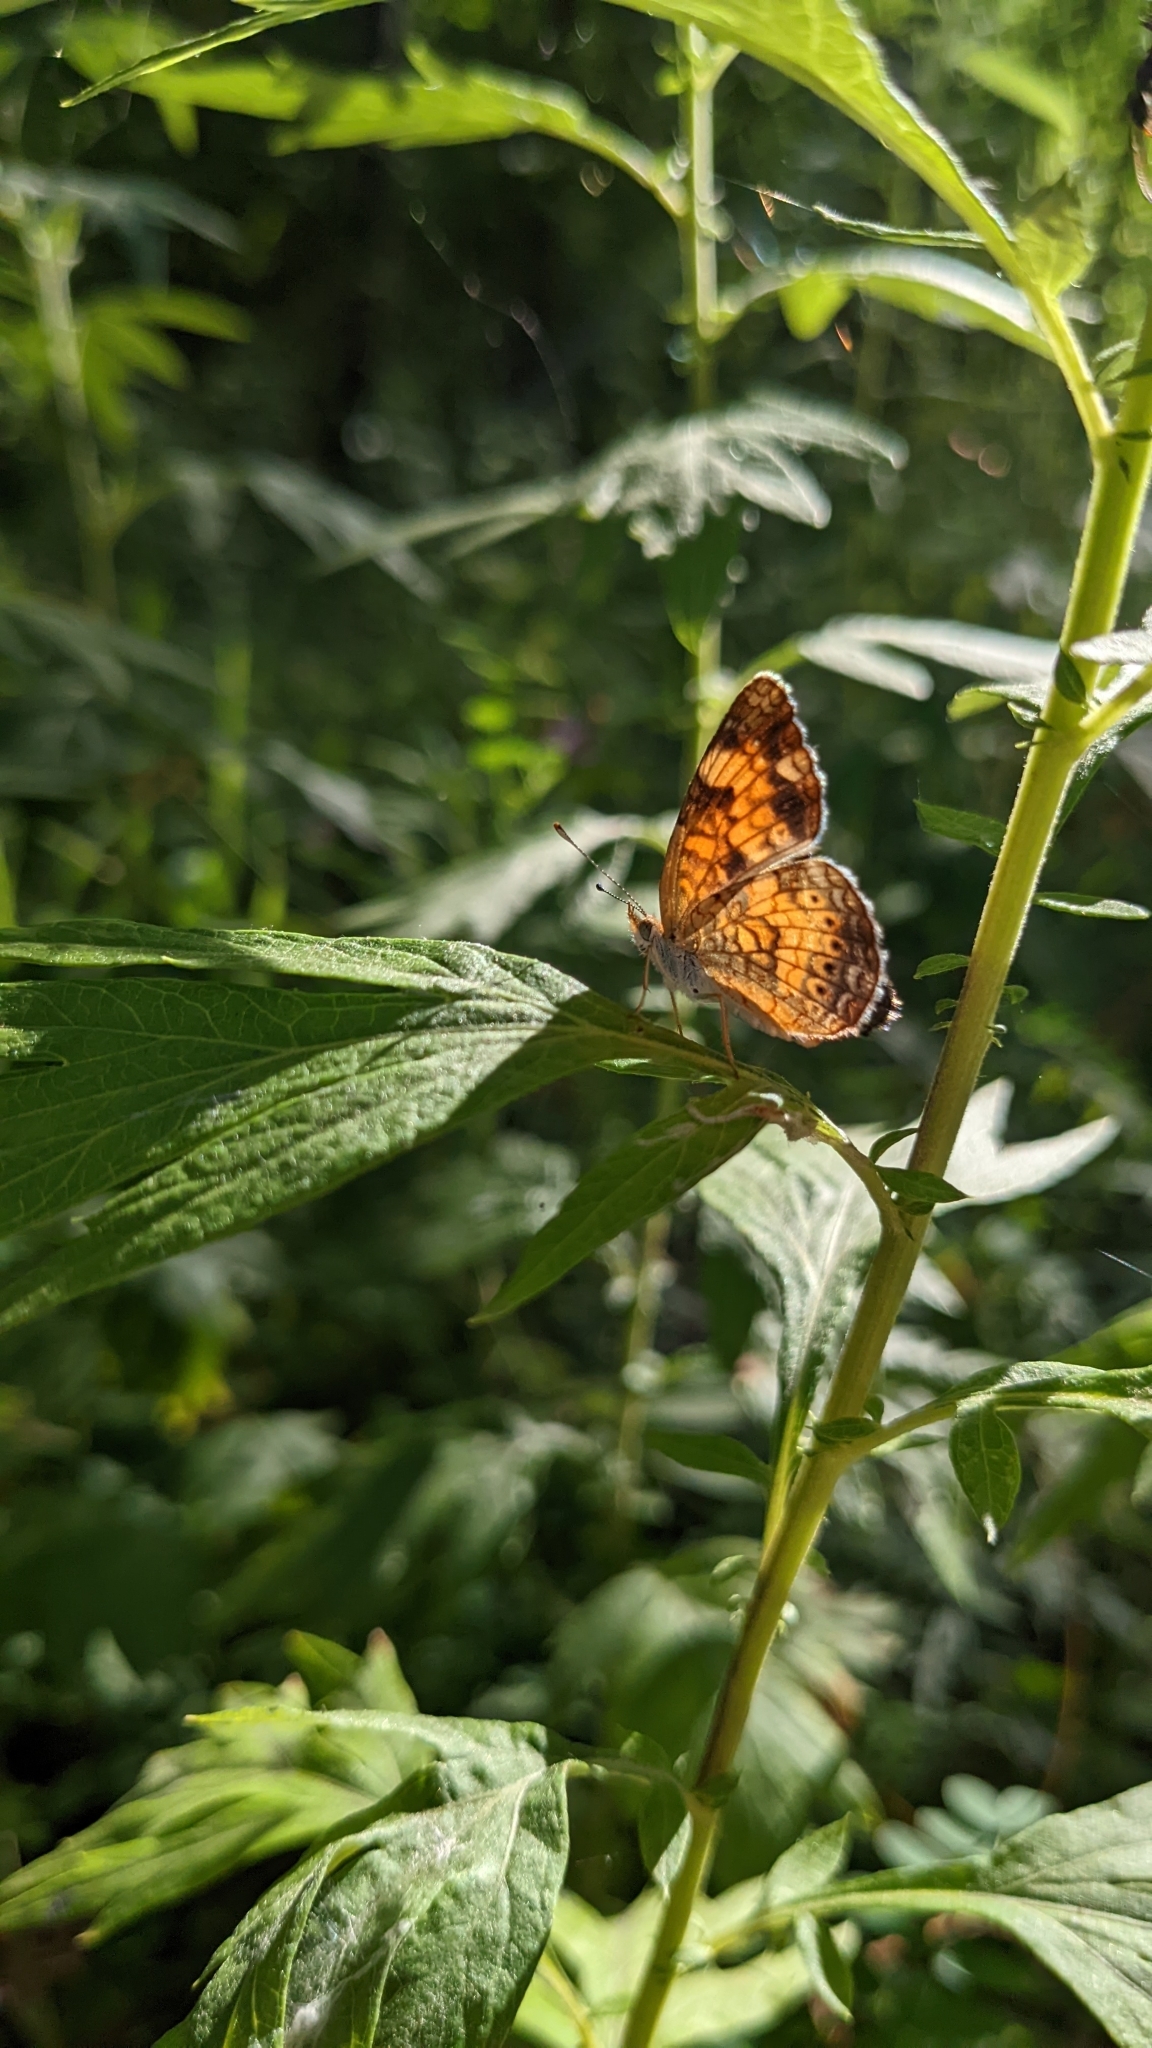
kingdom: Animalia
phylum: Arthropoda
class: Insecta
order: Lepidoptera
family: Nymphalidae
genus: Phyciodes
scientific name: Phyciodes tharos
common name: Pearl crescent
